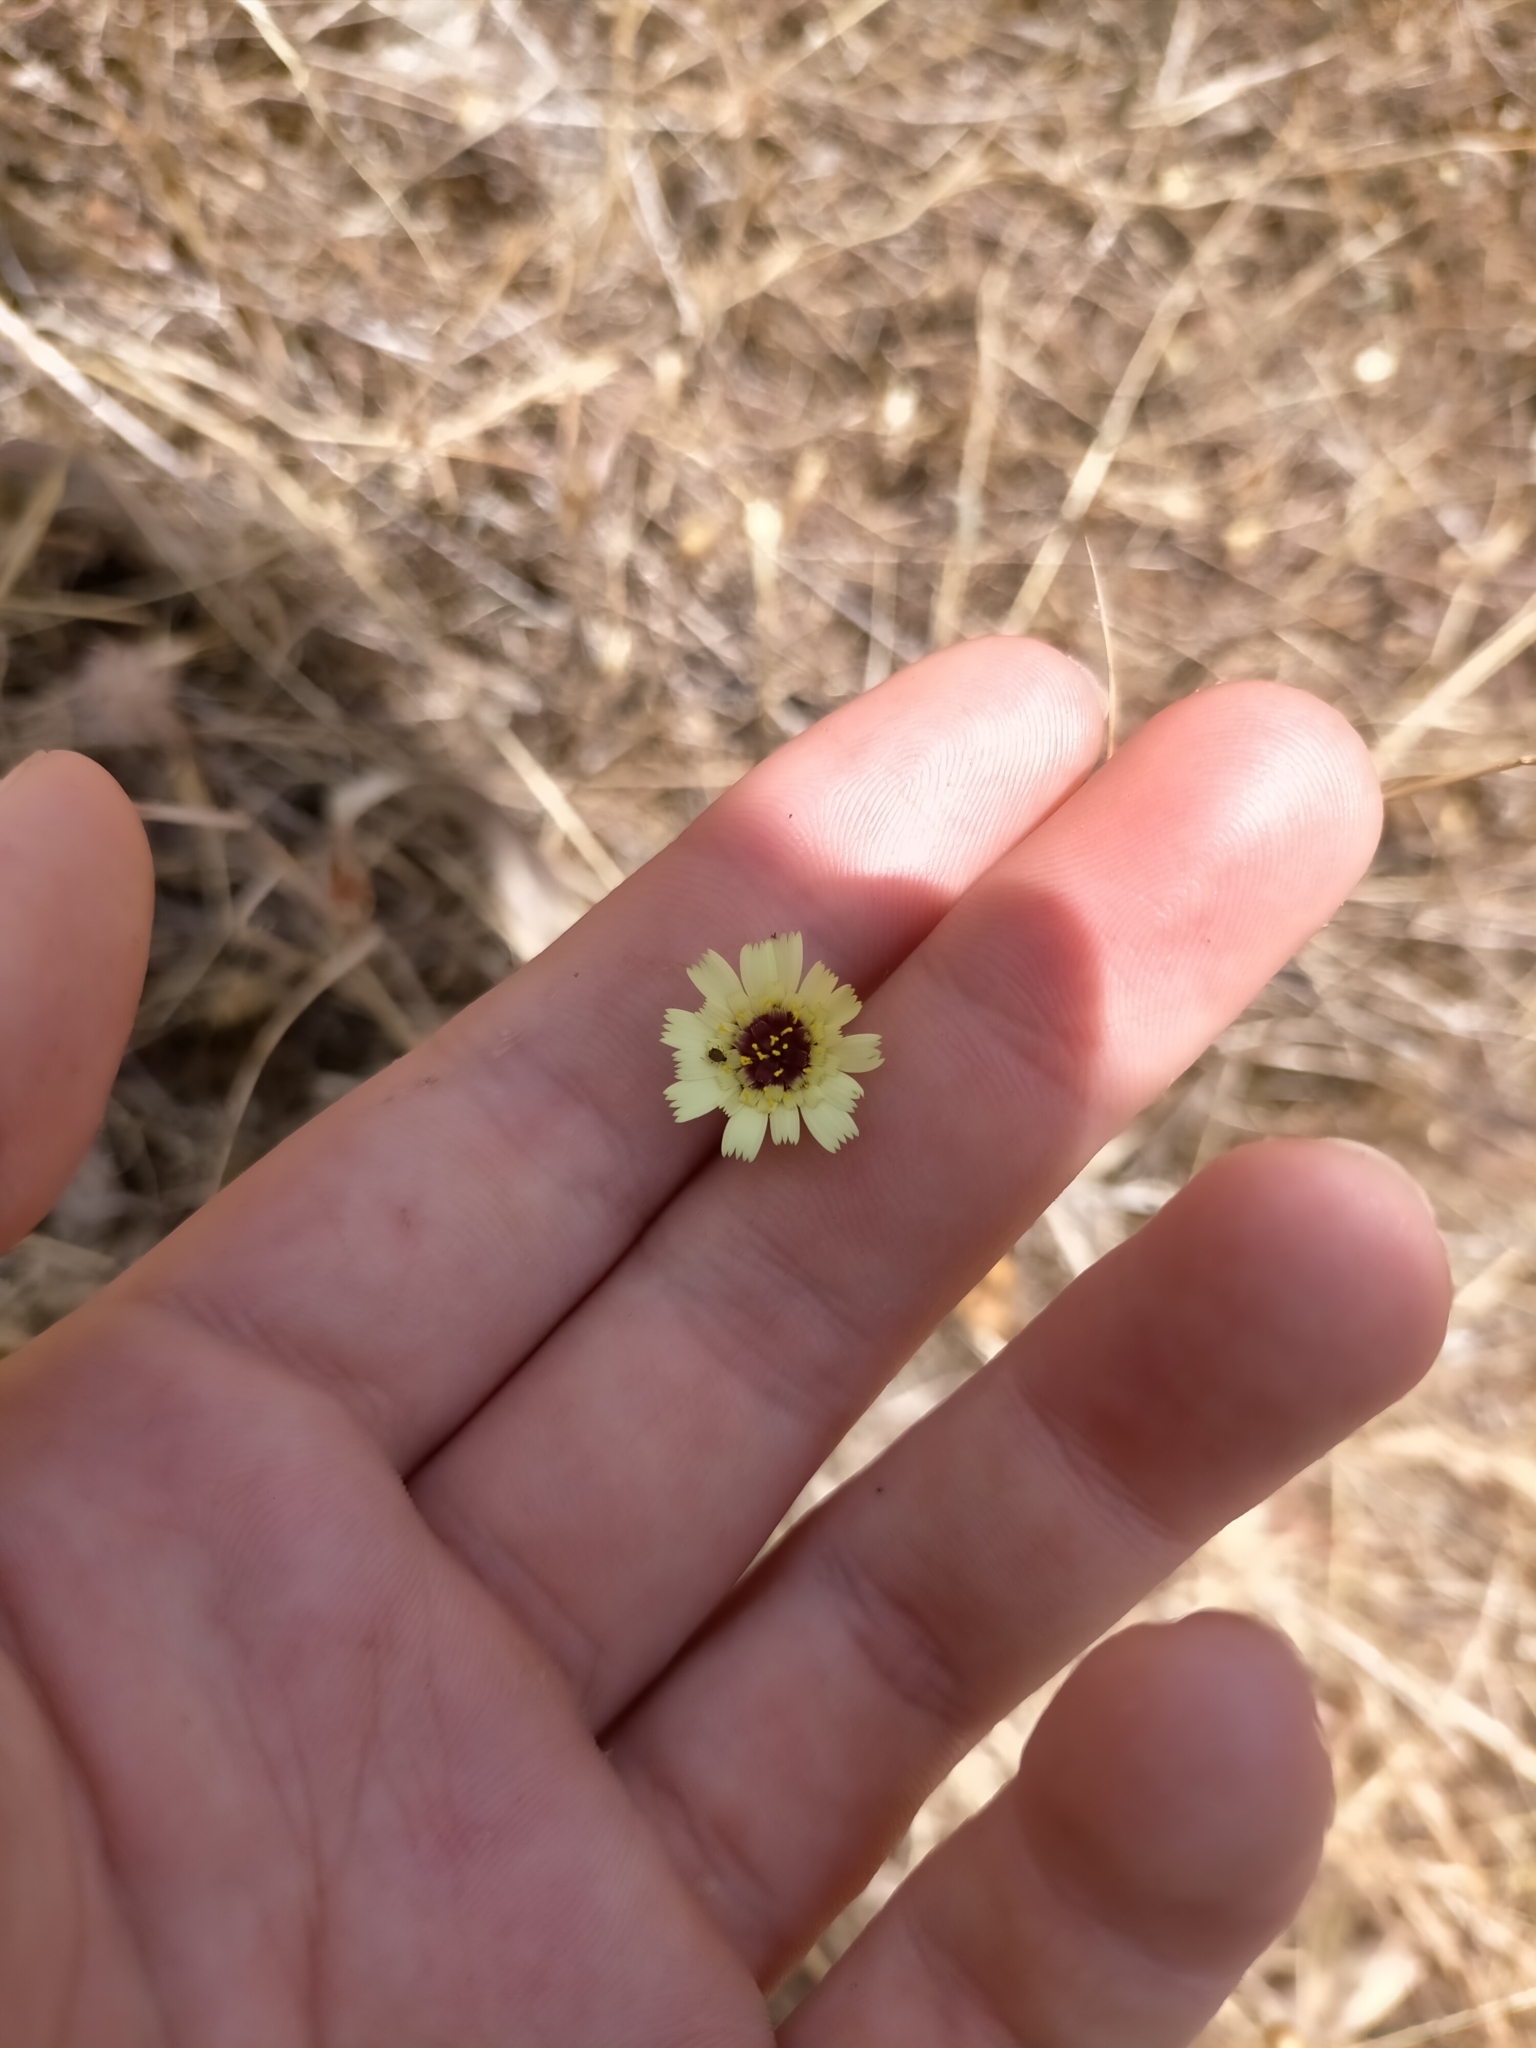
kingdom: Plantae
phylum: Tracheophyta
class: Magnoliopsida
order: Asterales
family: Asteraceae
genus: Tolpis
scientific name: Tolpis barbata
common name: Yellow hawkweed
